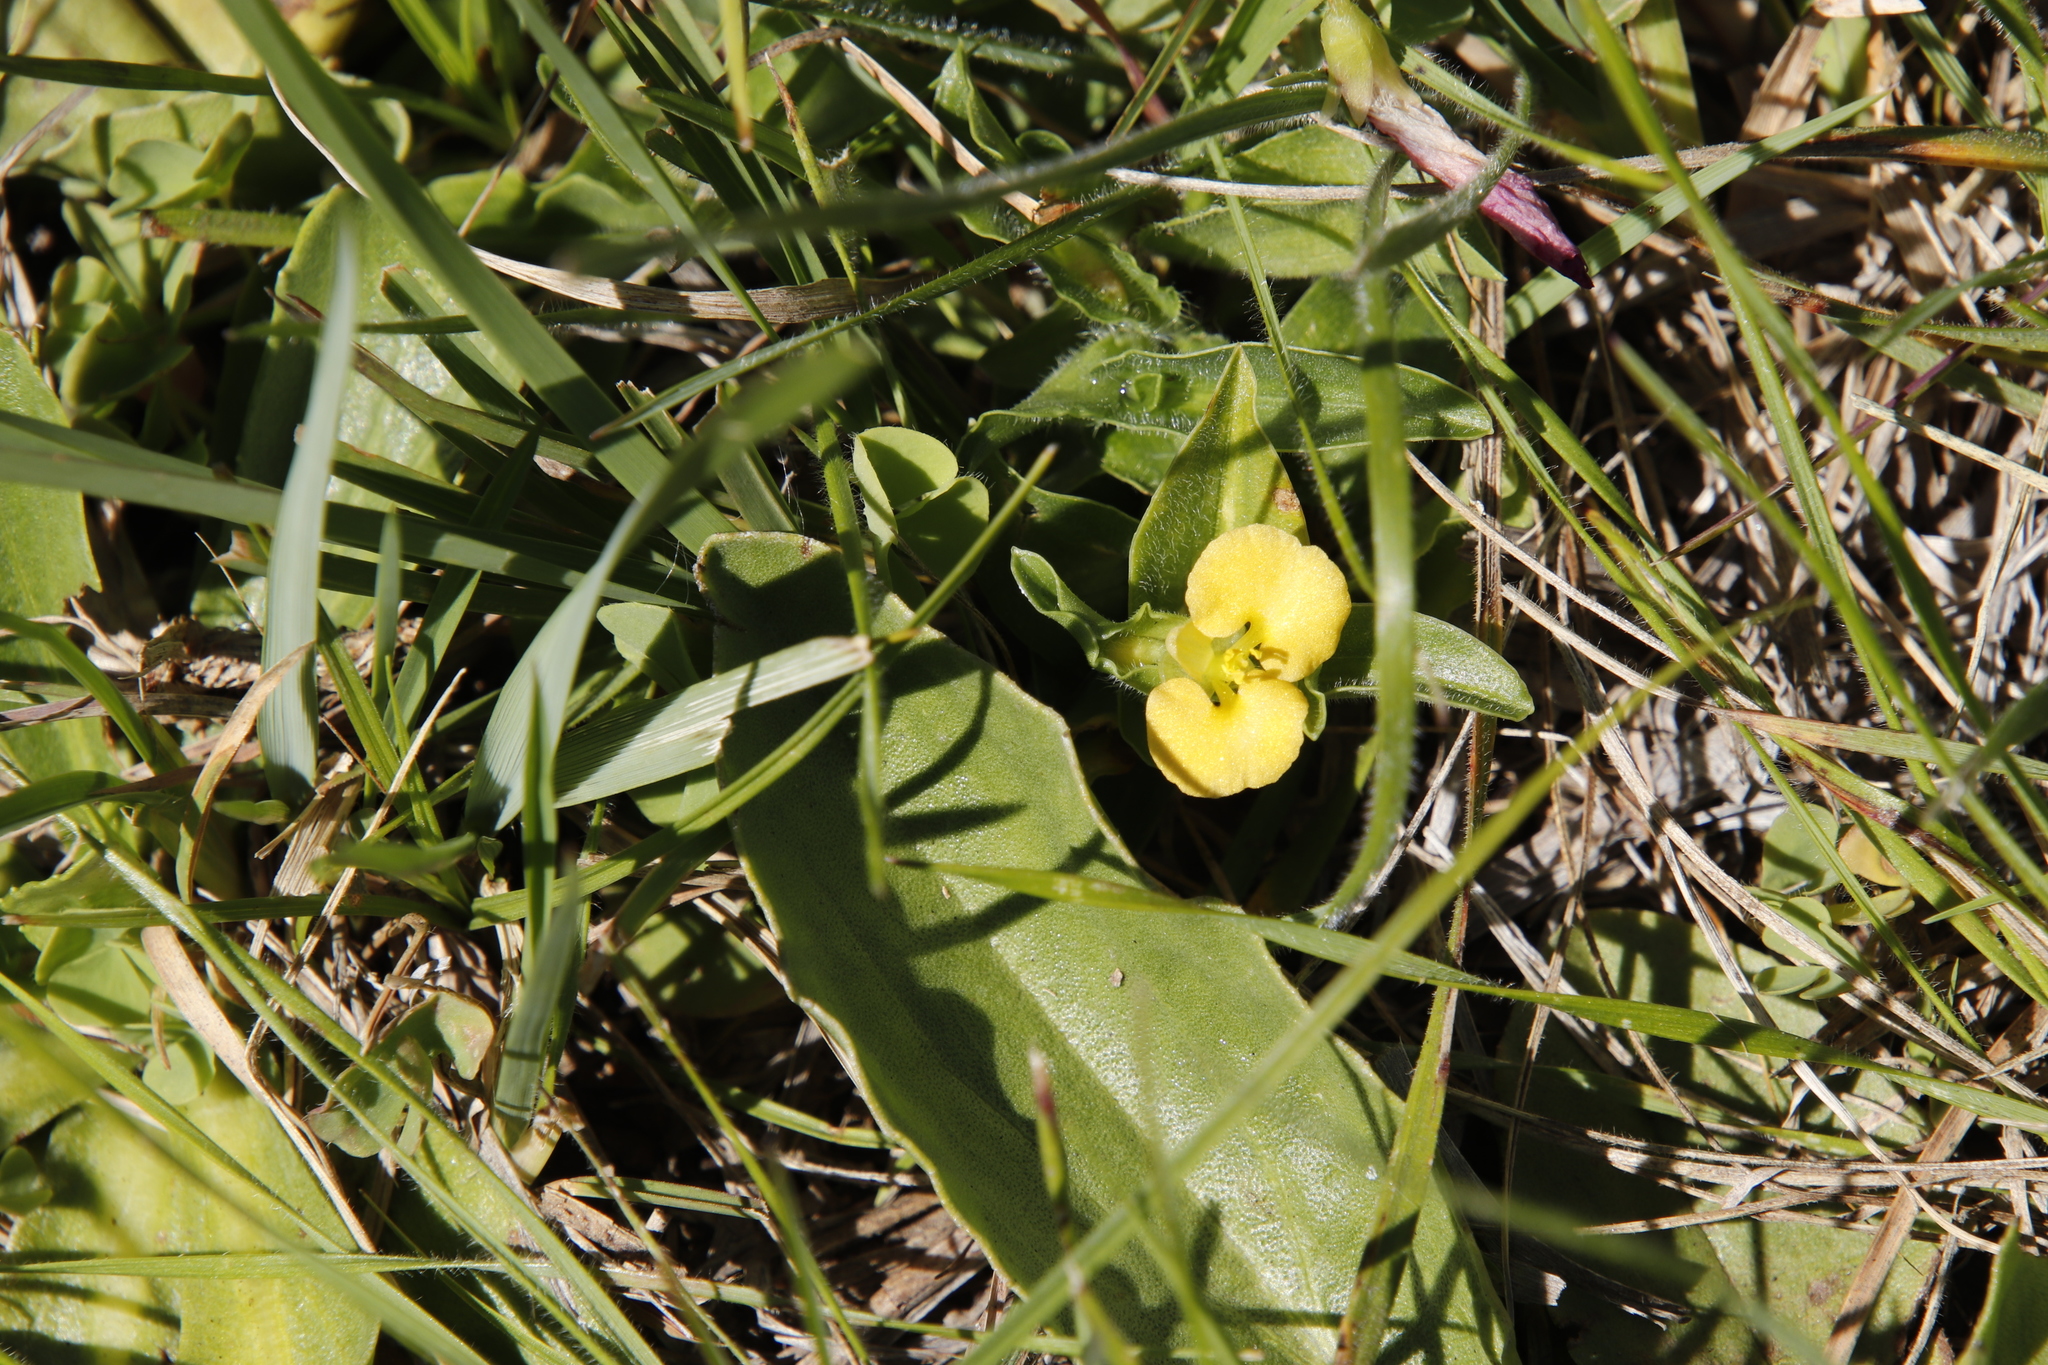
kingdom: Plantae
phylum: Tracheophyta
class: Liliopsida
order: Commelinales
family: Commelinaceae
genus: Commelina
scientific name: Commelina africana
